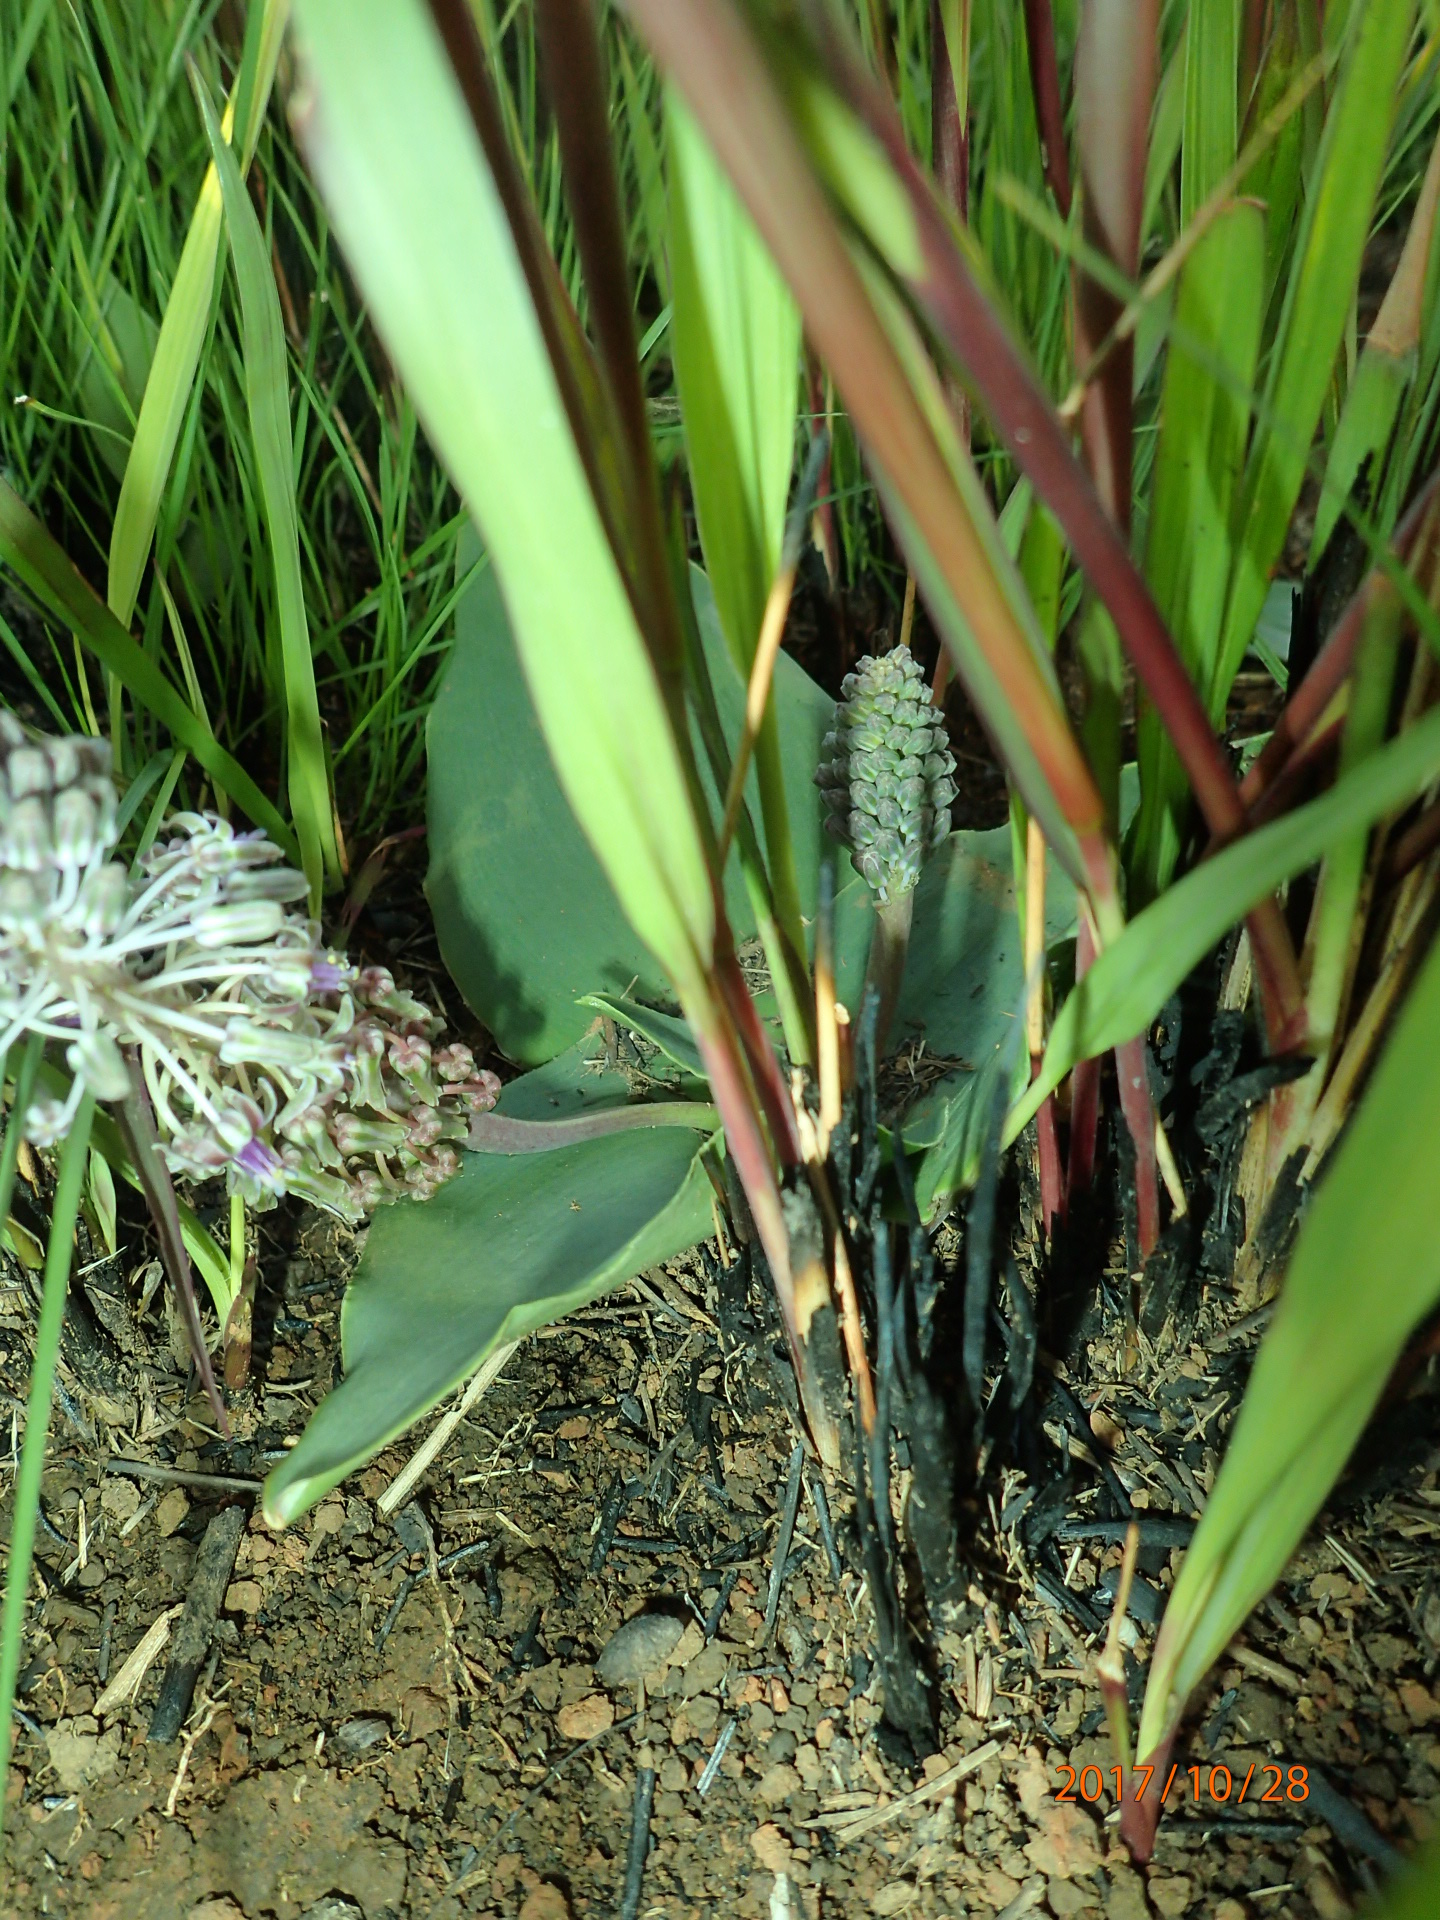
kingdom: Plantae
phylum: Tracheophyta
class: Liliopsida
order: Asparagales
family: Asparagaceae
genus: Ledebouria
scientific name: Ledebouria ovatifolia
